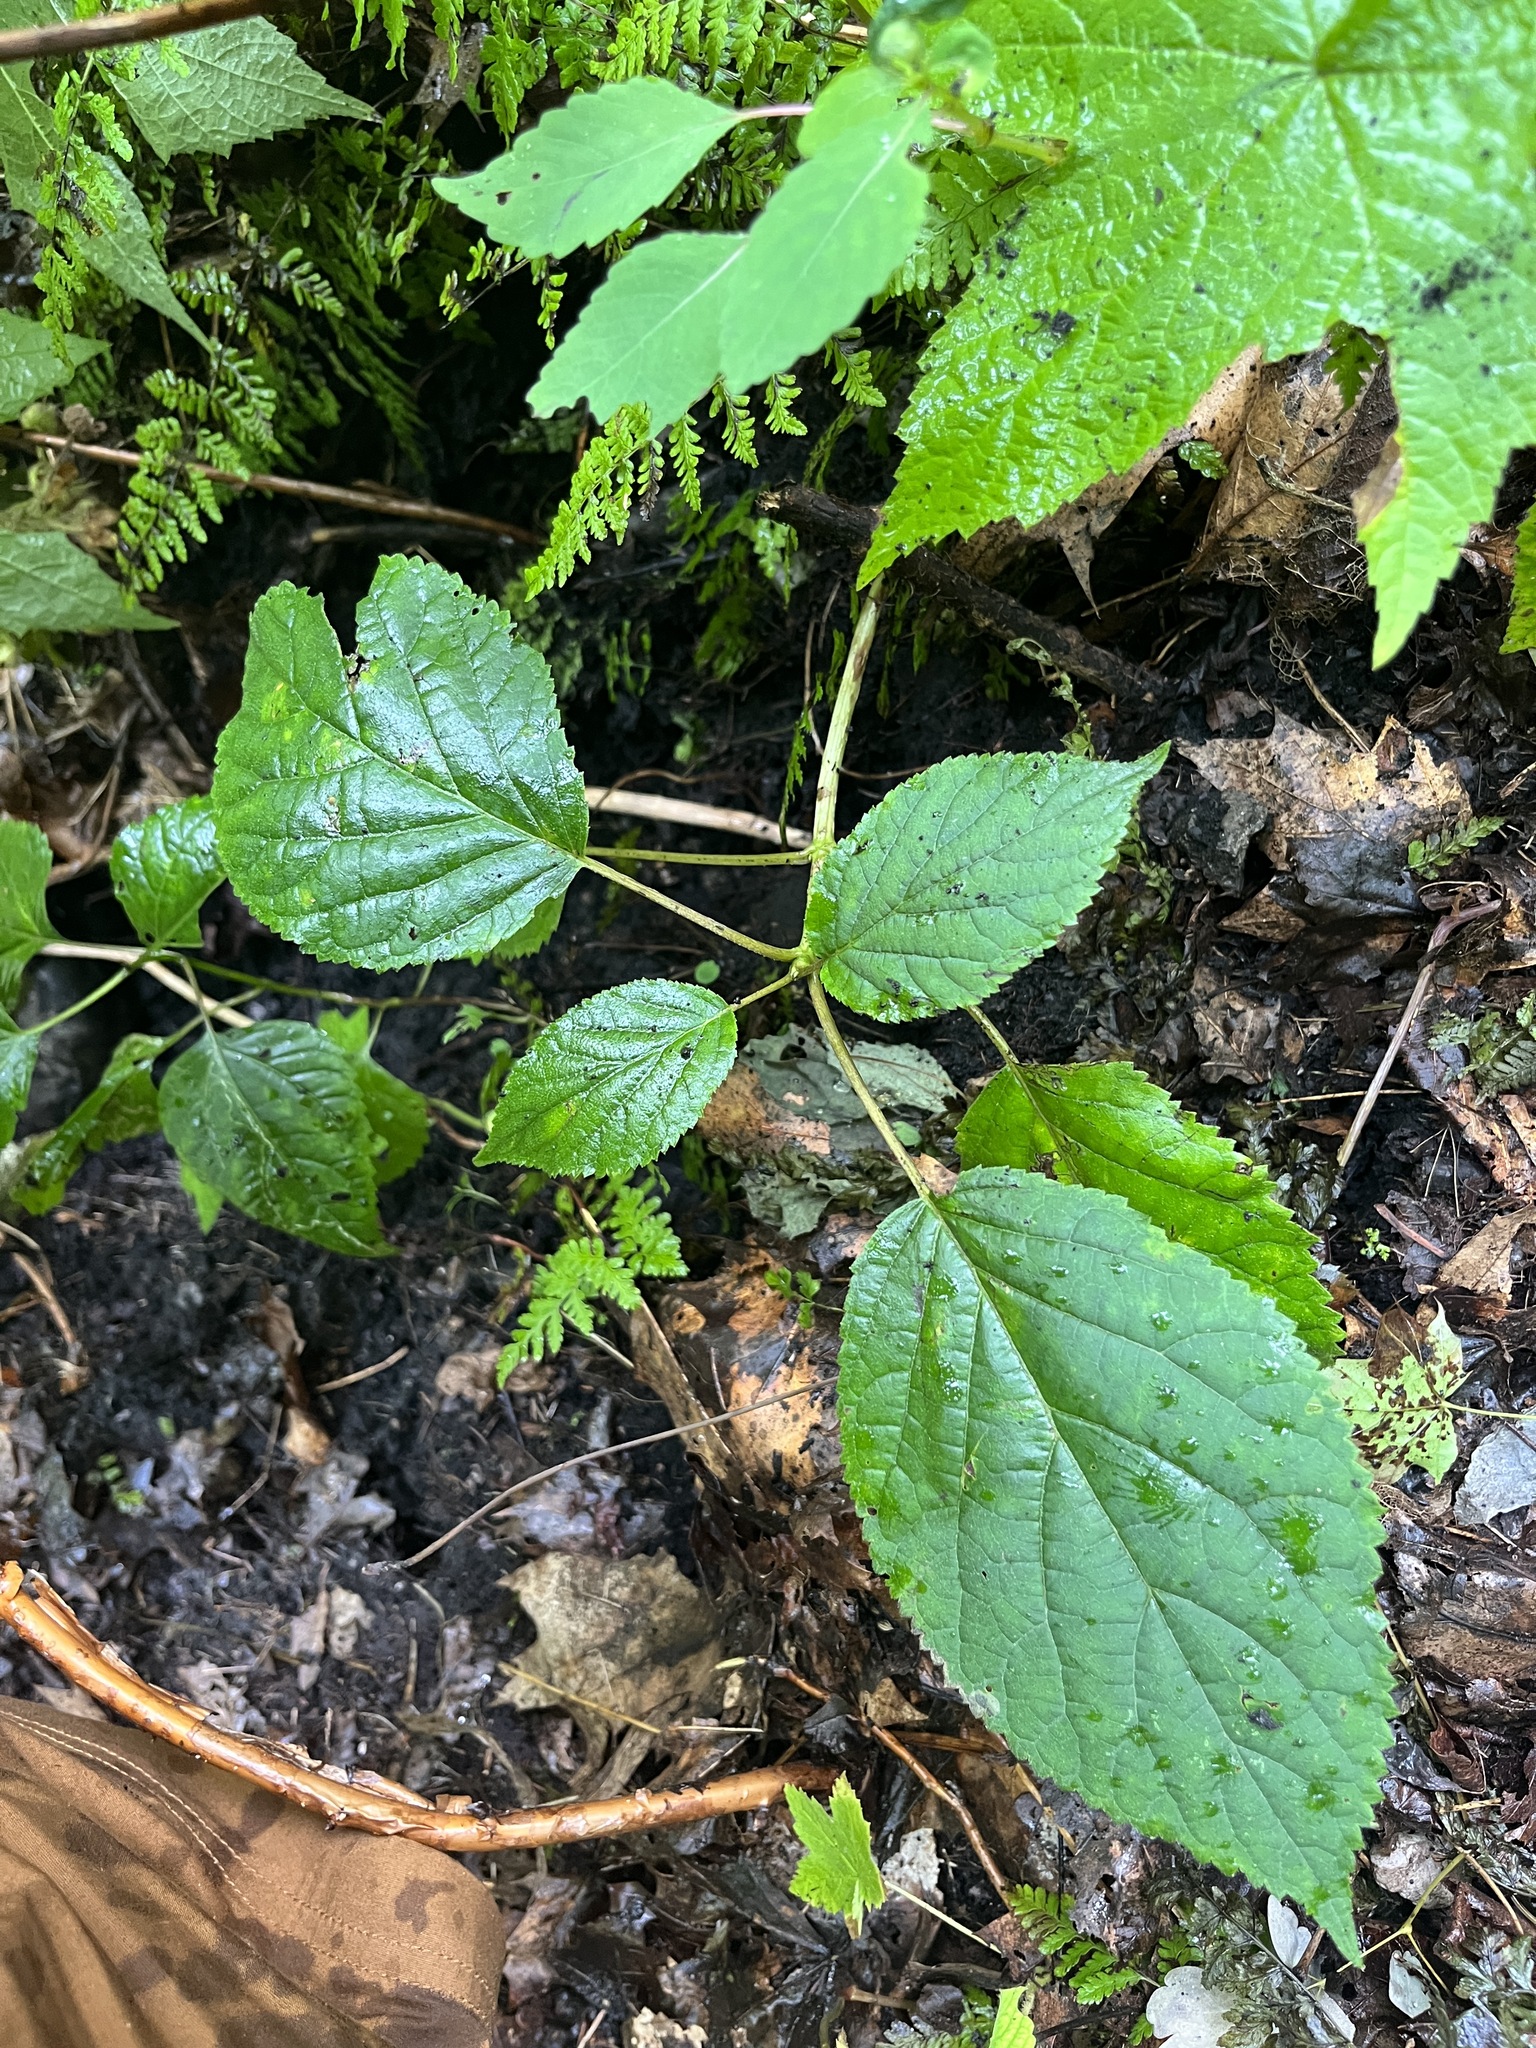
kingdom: Plantae
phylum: Tracheophyta
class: Magnoliopsida
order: Cornales
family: Hydrangeaceae
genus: Hydrangea
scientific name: Hydrangea arborescens
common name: Sevenbark
